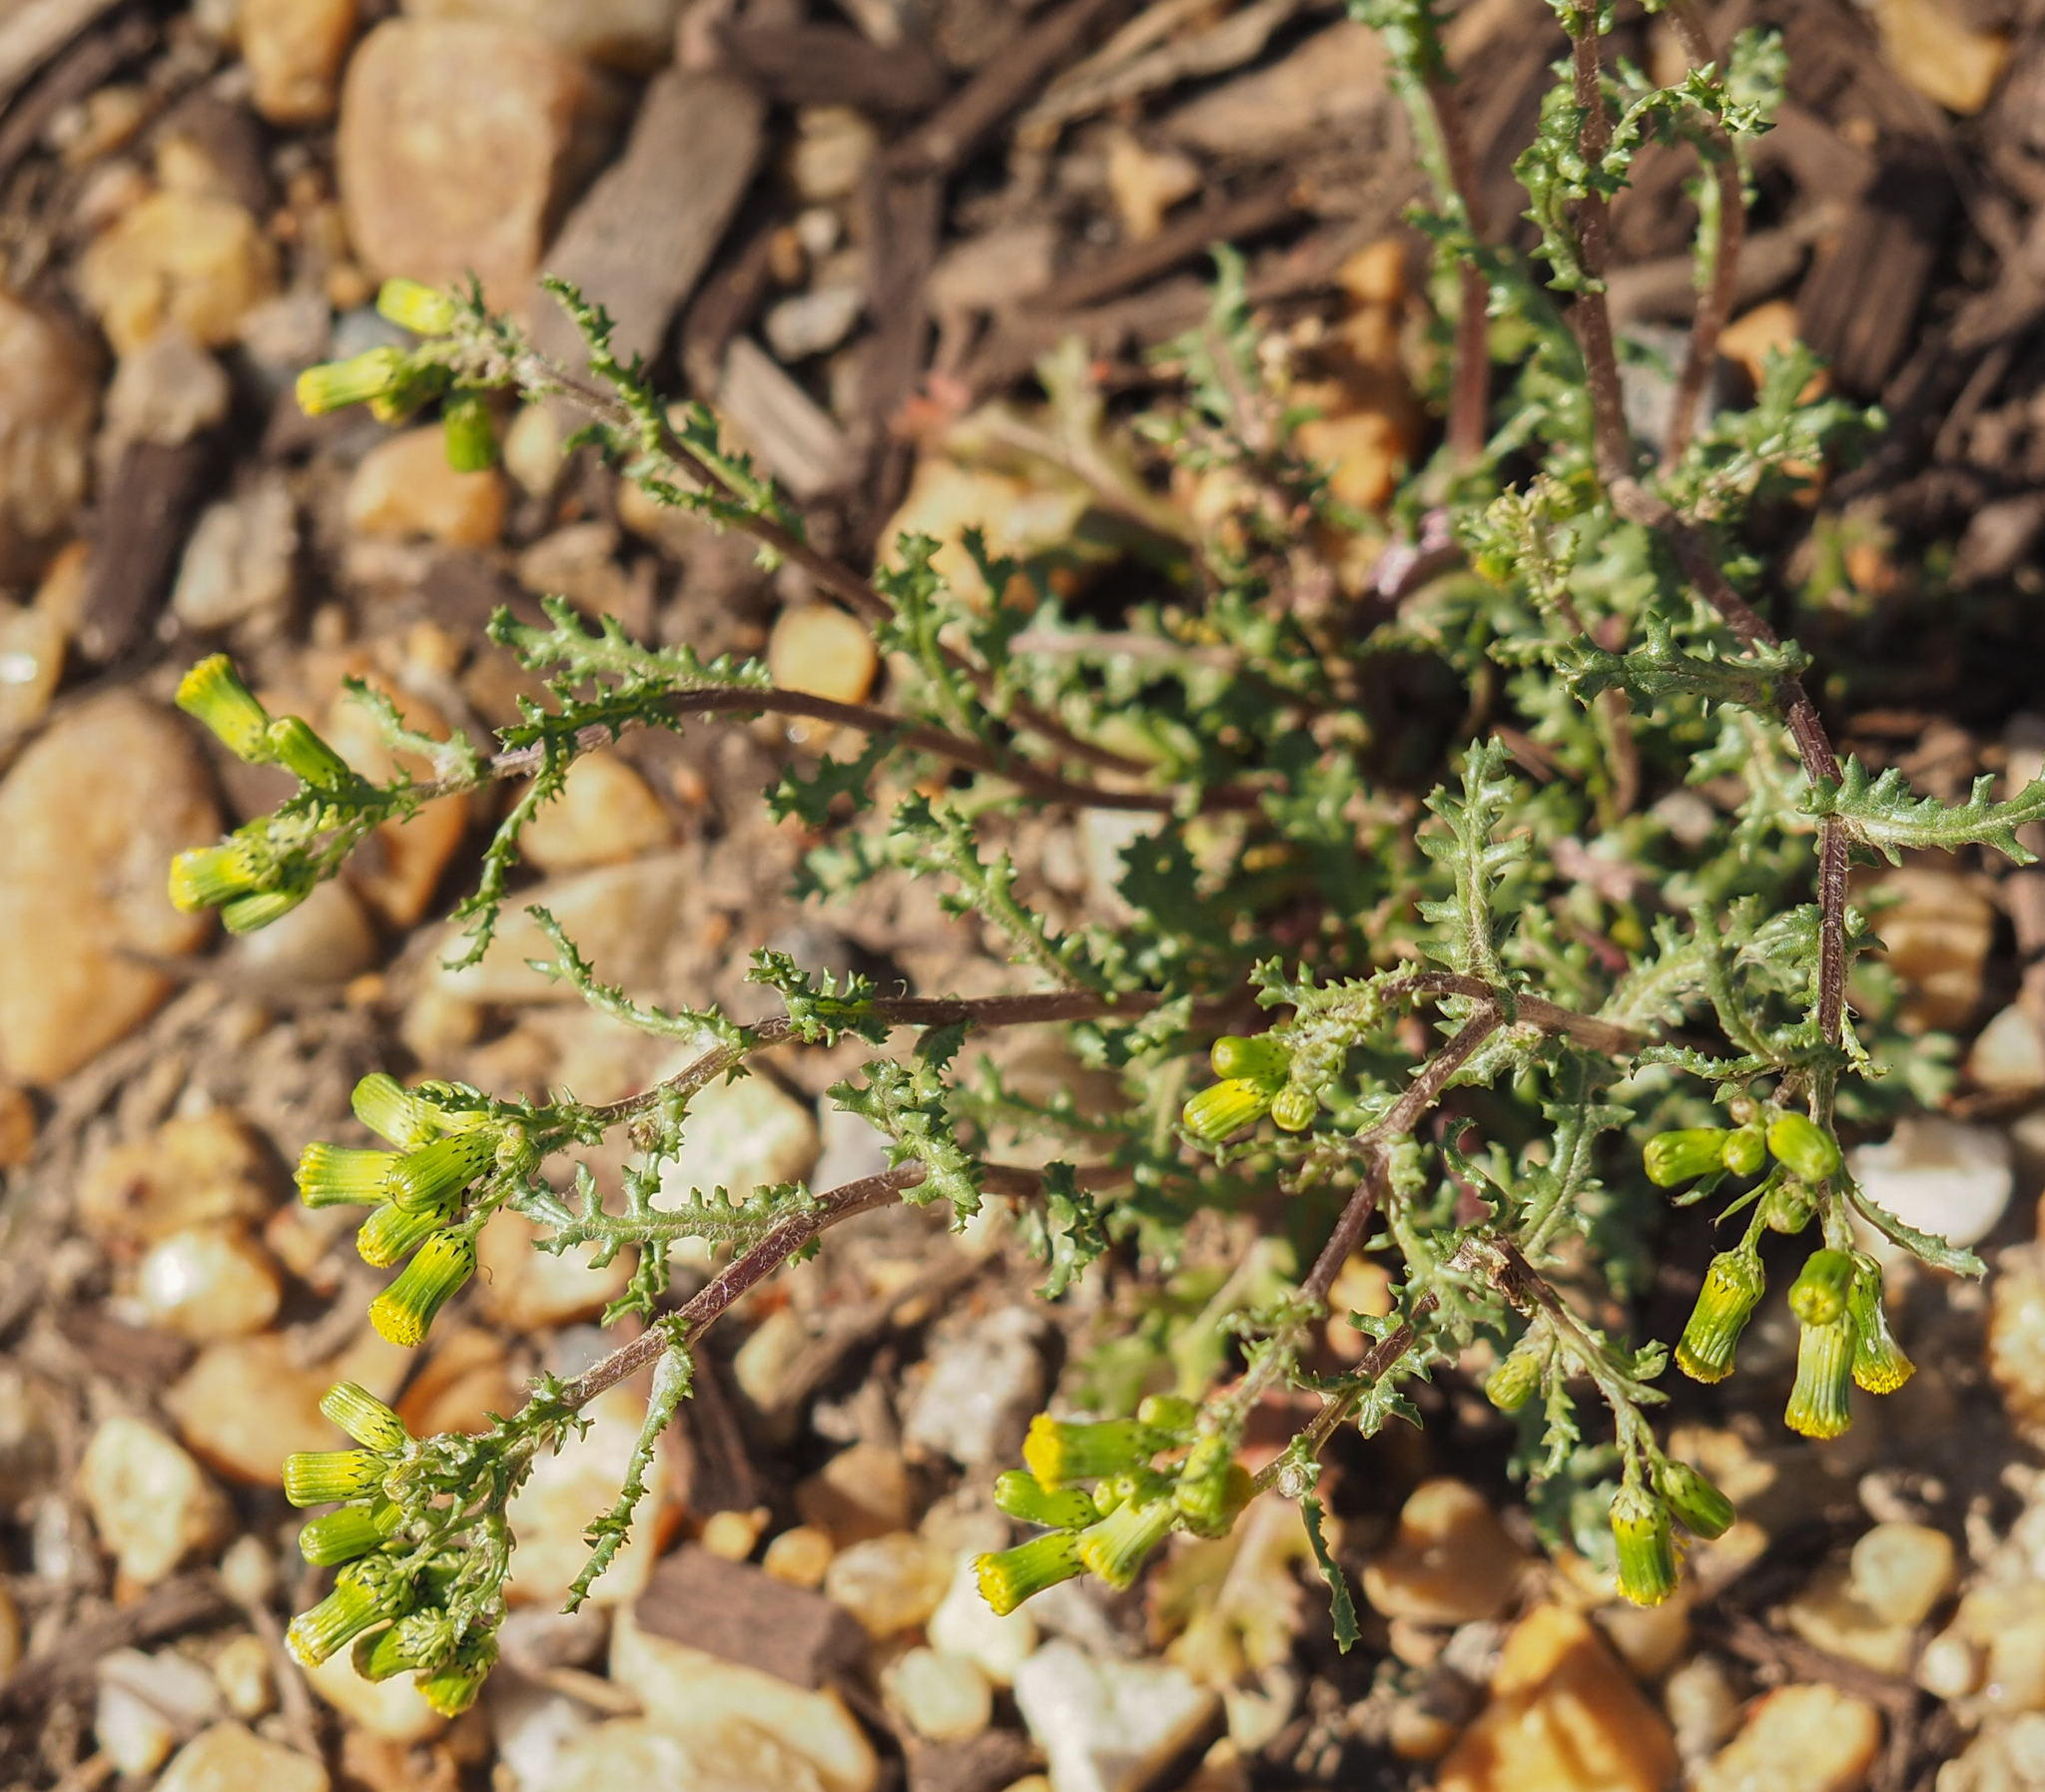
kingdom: Plantae
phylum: Tracheophyta
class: Magnoliopsida
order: Asterales
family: Asteraceae
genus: Senecio
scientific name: Senecio vulgaris
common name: Old-man-in-the-spring
